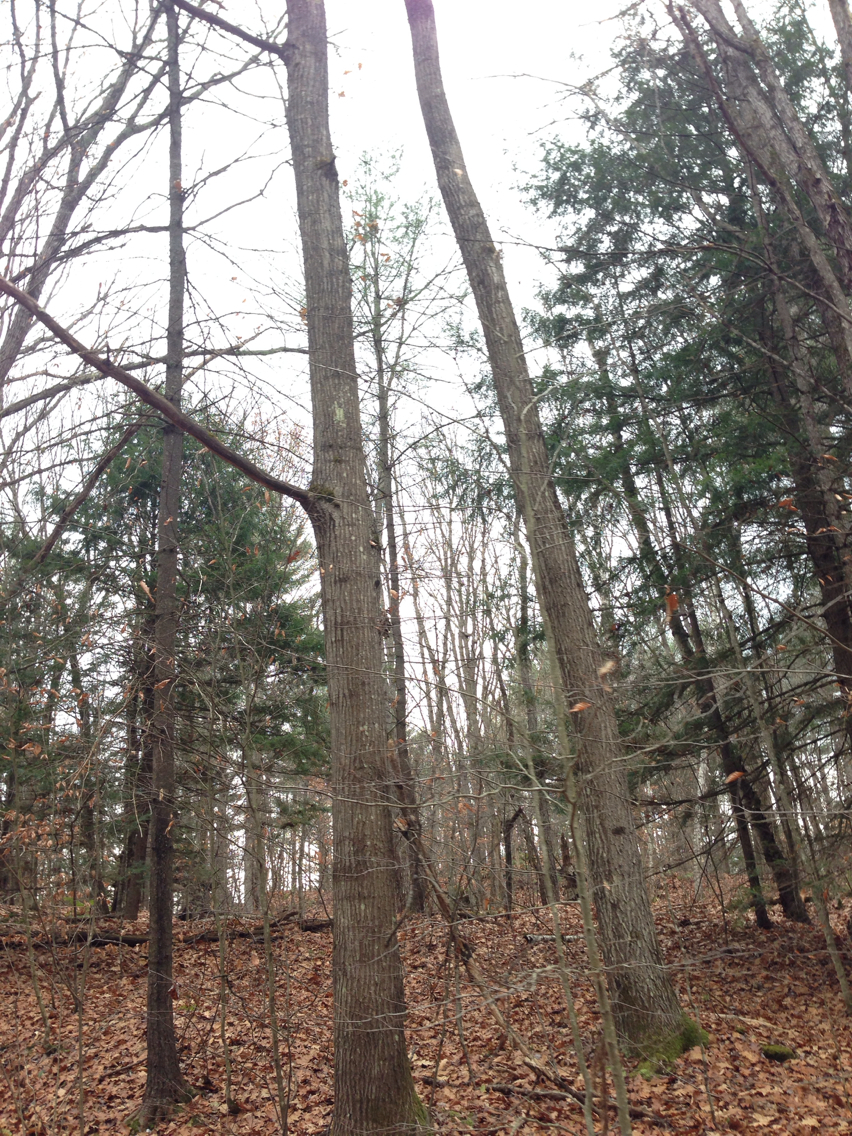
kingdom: Plantae
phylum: Tracheophyta
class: Magnoliopsida
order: Fagales
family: Fagaceae
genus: Quercus
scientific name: Quercus rubra
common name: Red oak
